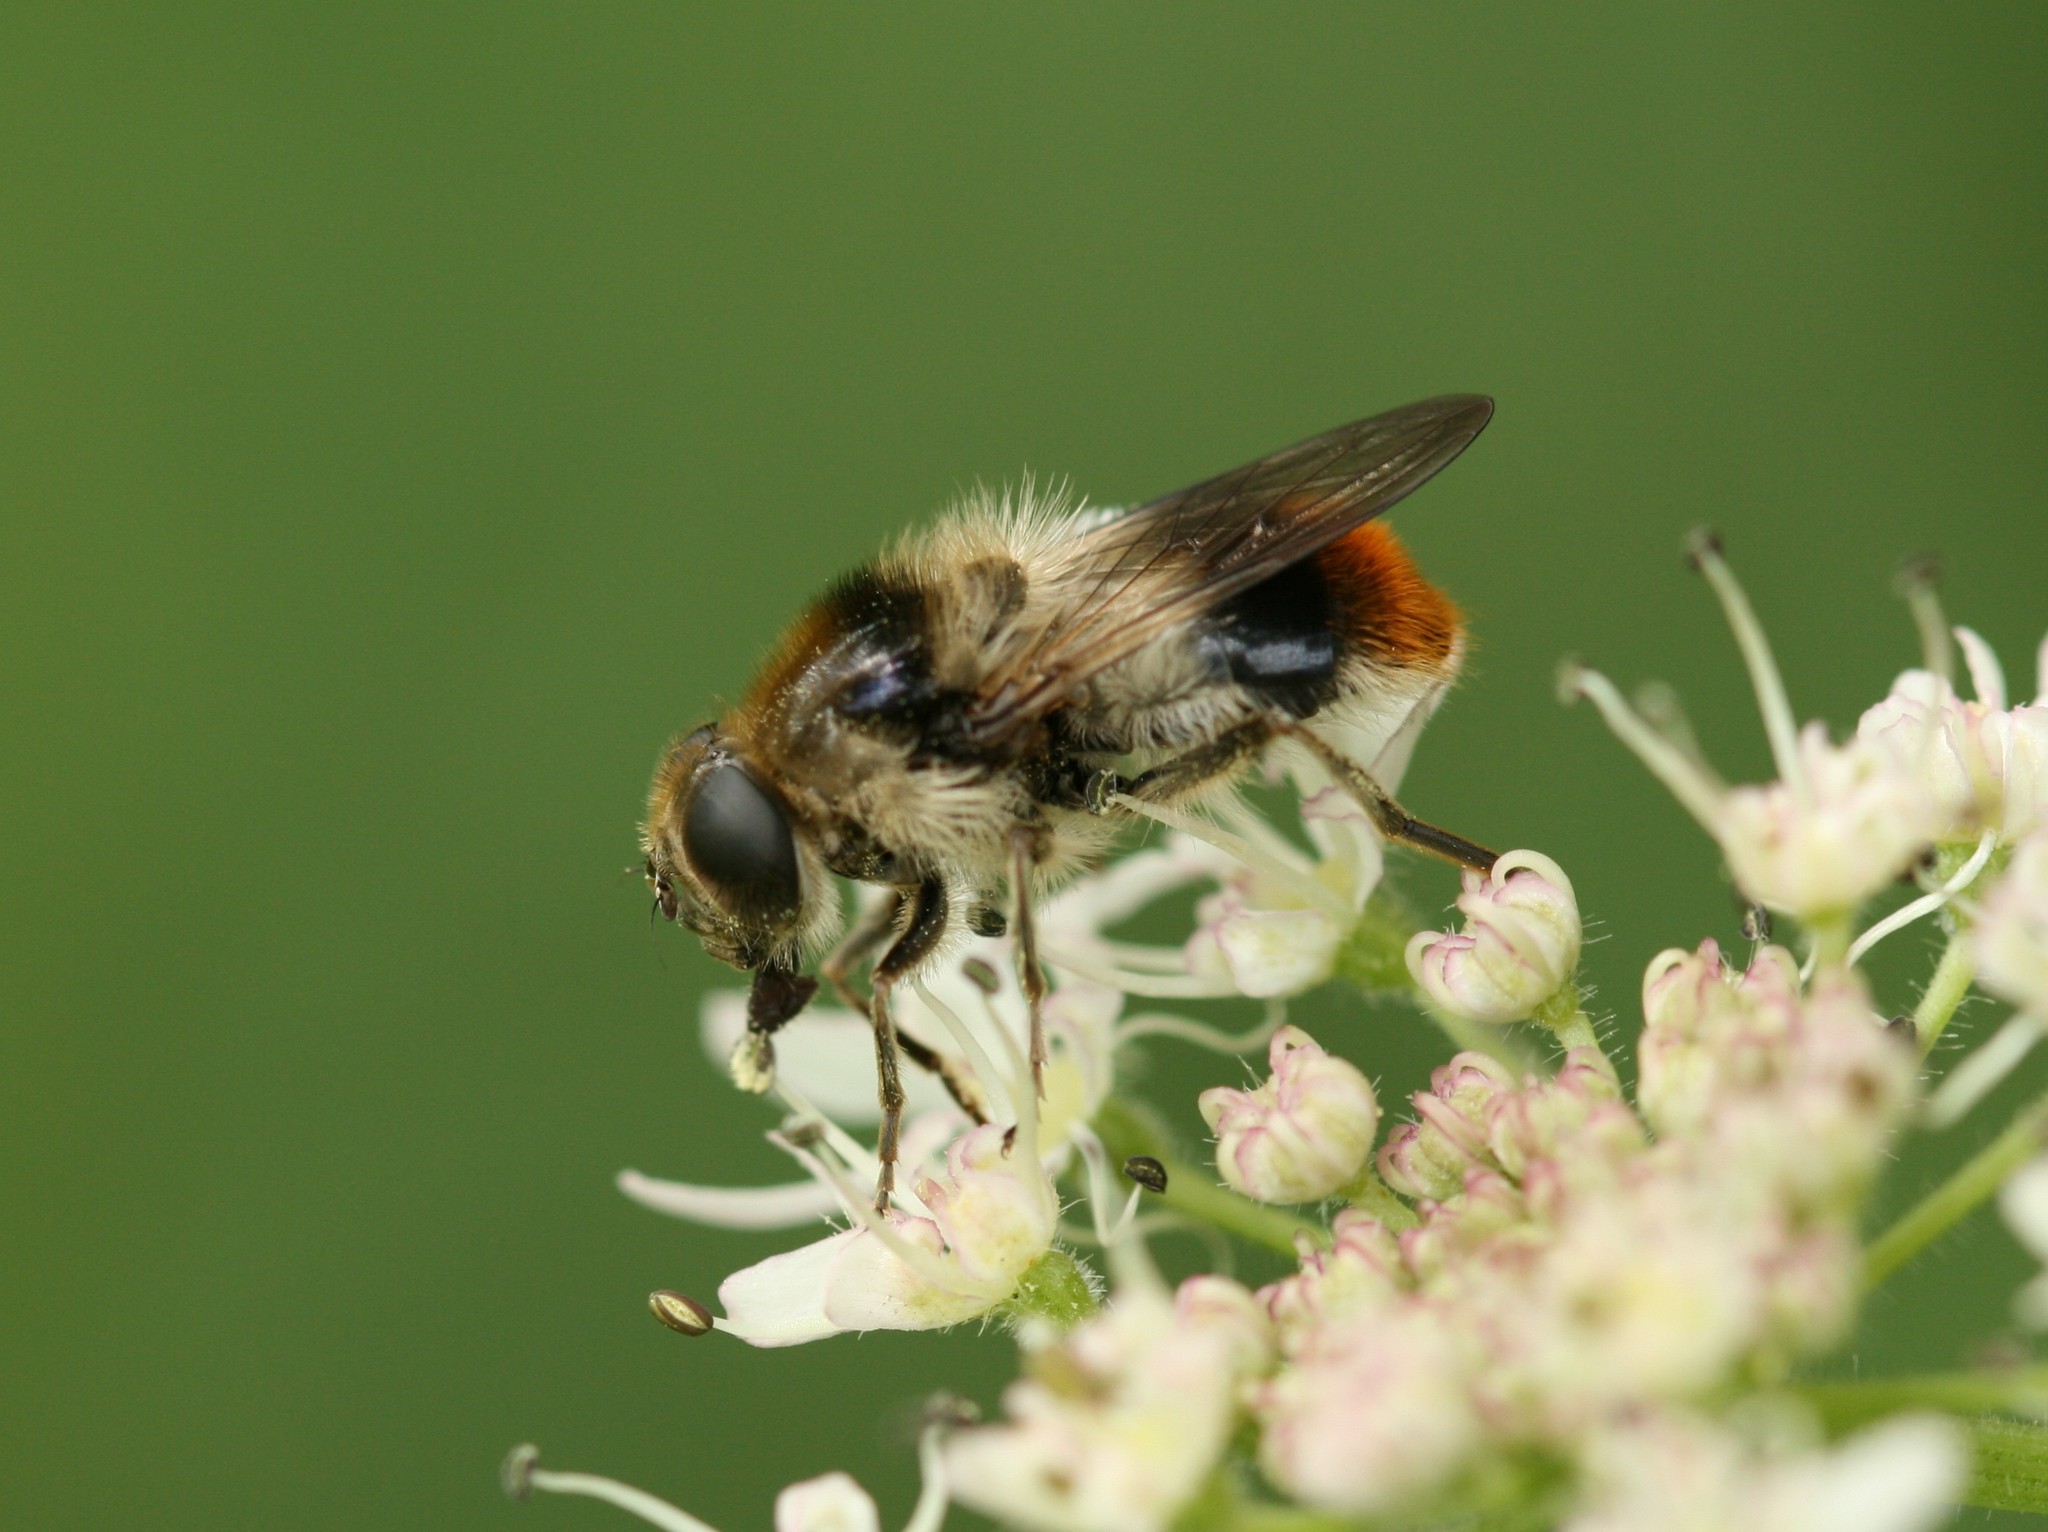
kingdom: Animalia
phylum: Arthropoda
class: Insecta
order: Diptera
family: Syrphidae
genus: Cheilosia
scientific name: Cheilosia illustrata
